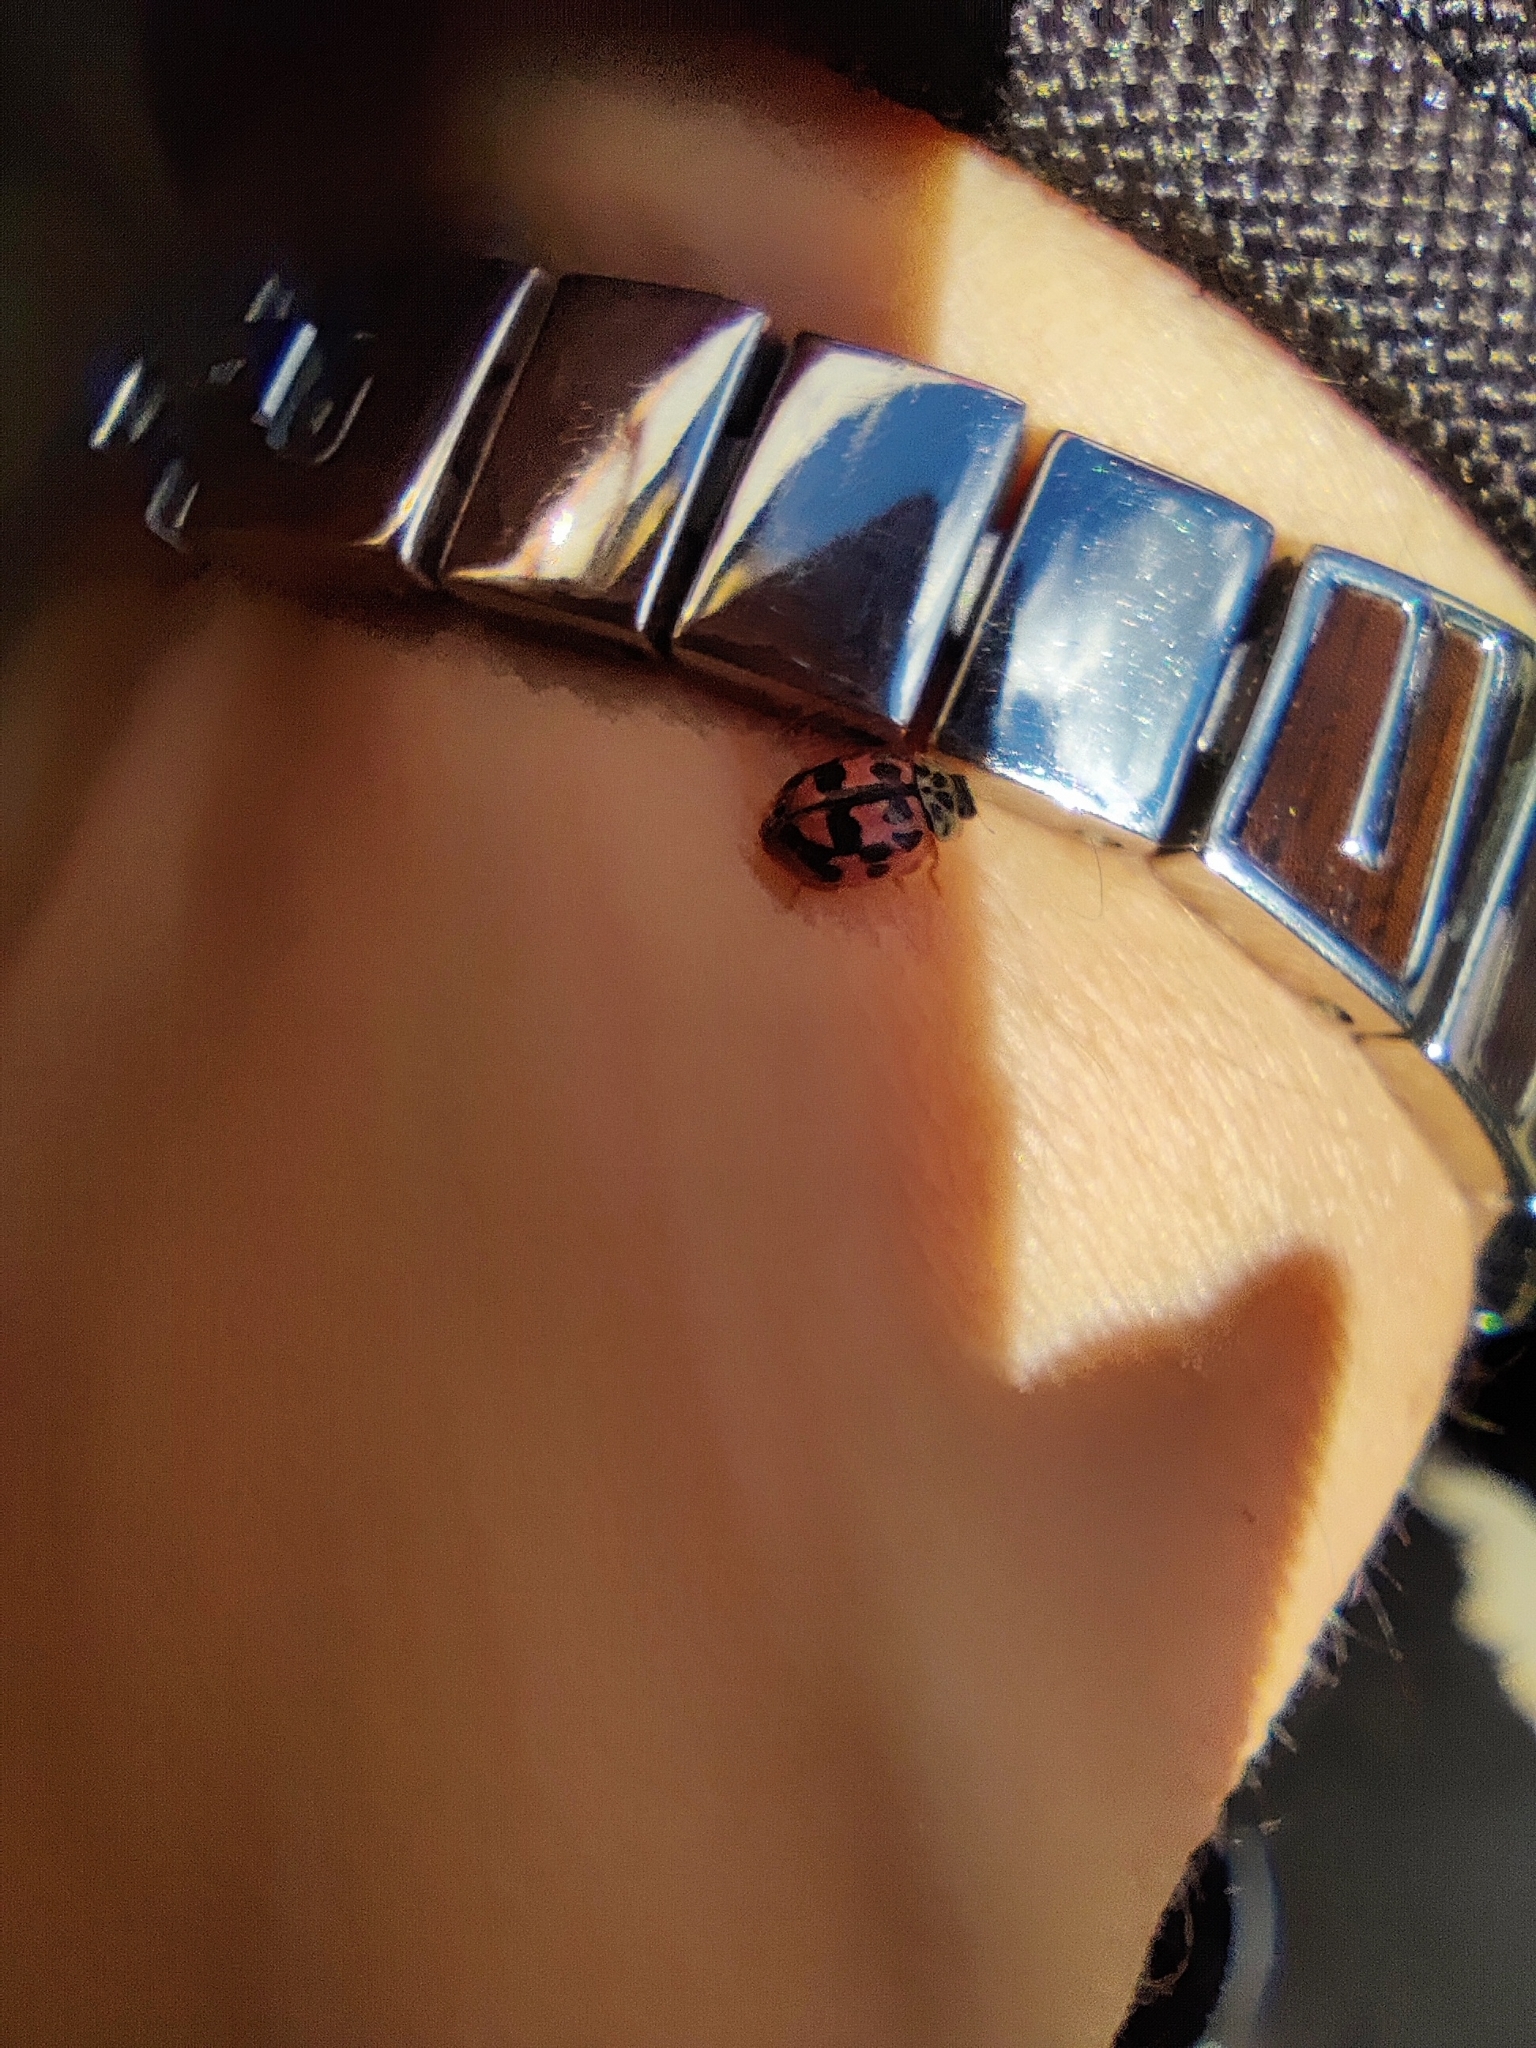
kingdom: Animalia
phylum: Arthropoda
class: Insecta
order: Coleoptera
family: Coccinellidae
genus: Oenopia
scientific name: Oenopia conglobata
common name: Ladybird beetle
